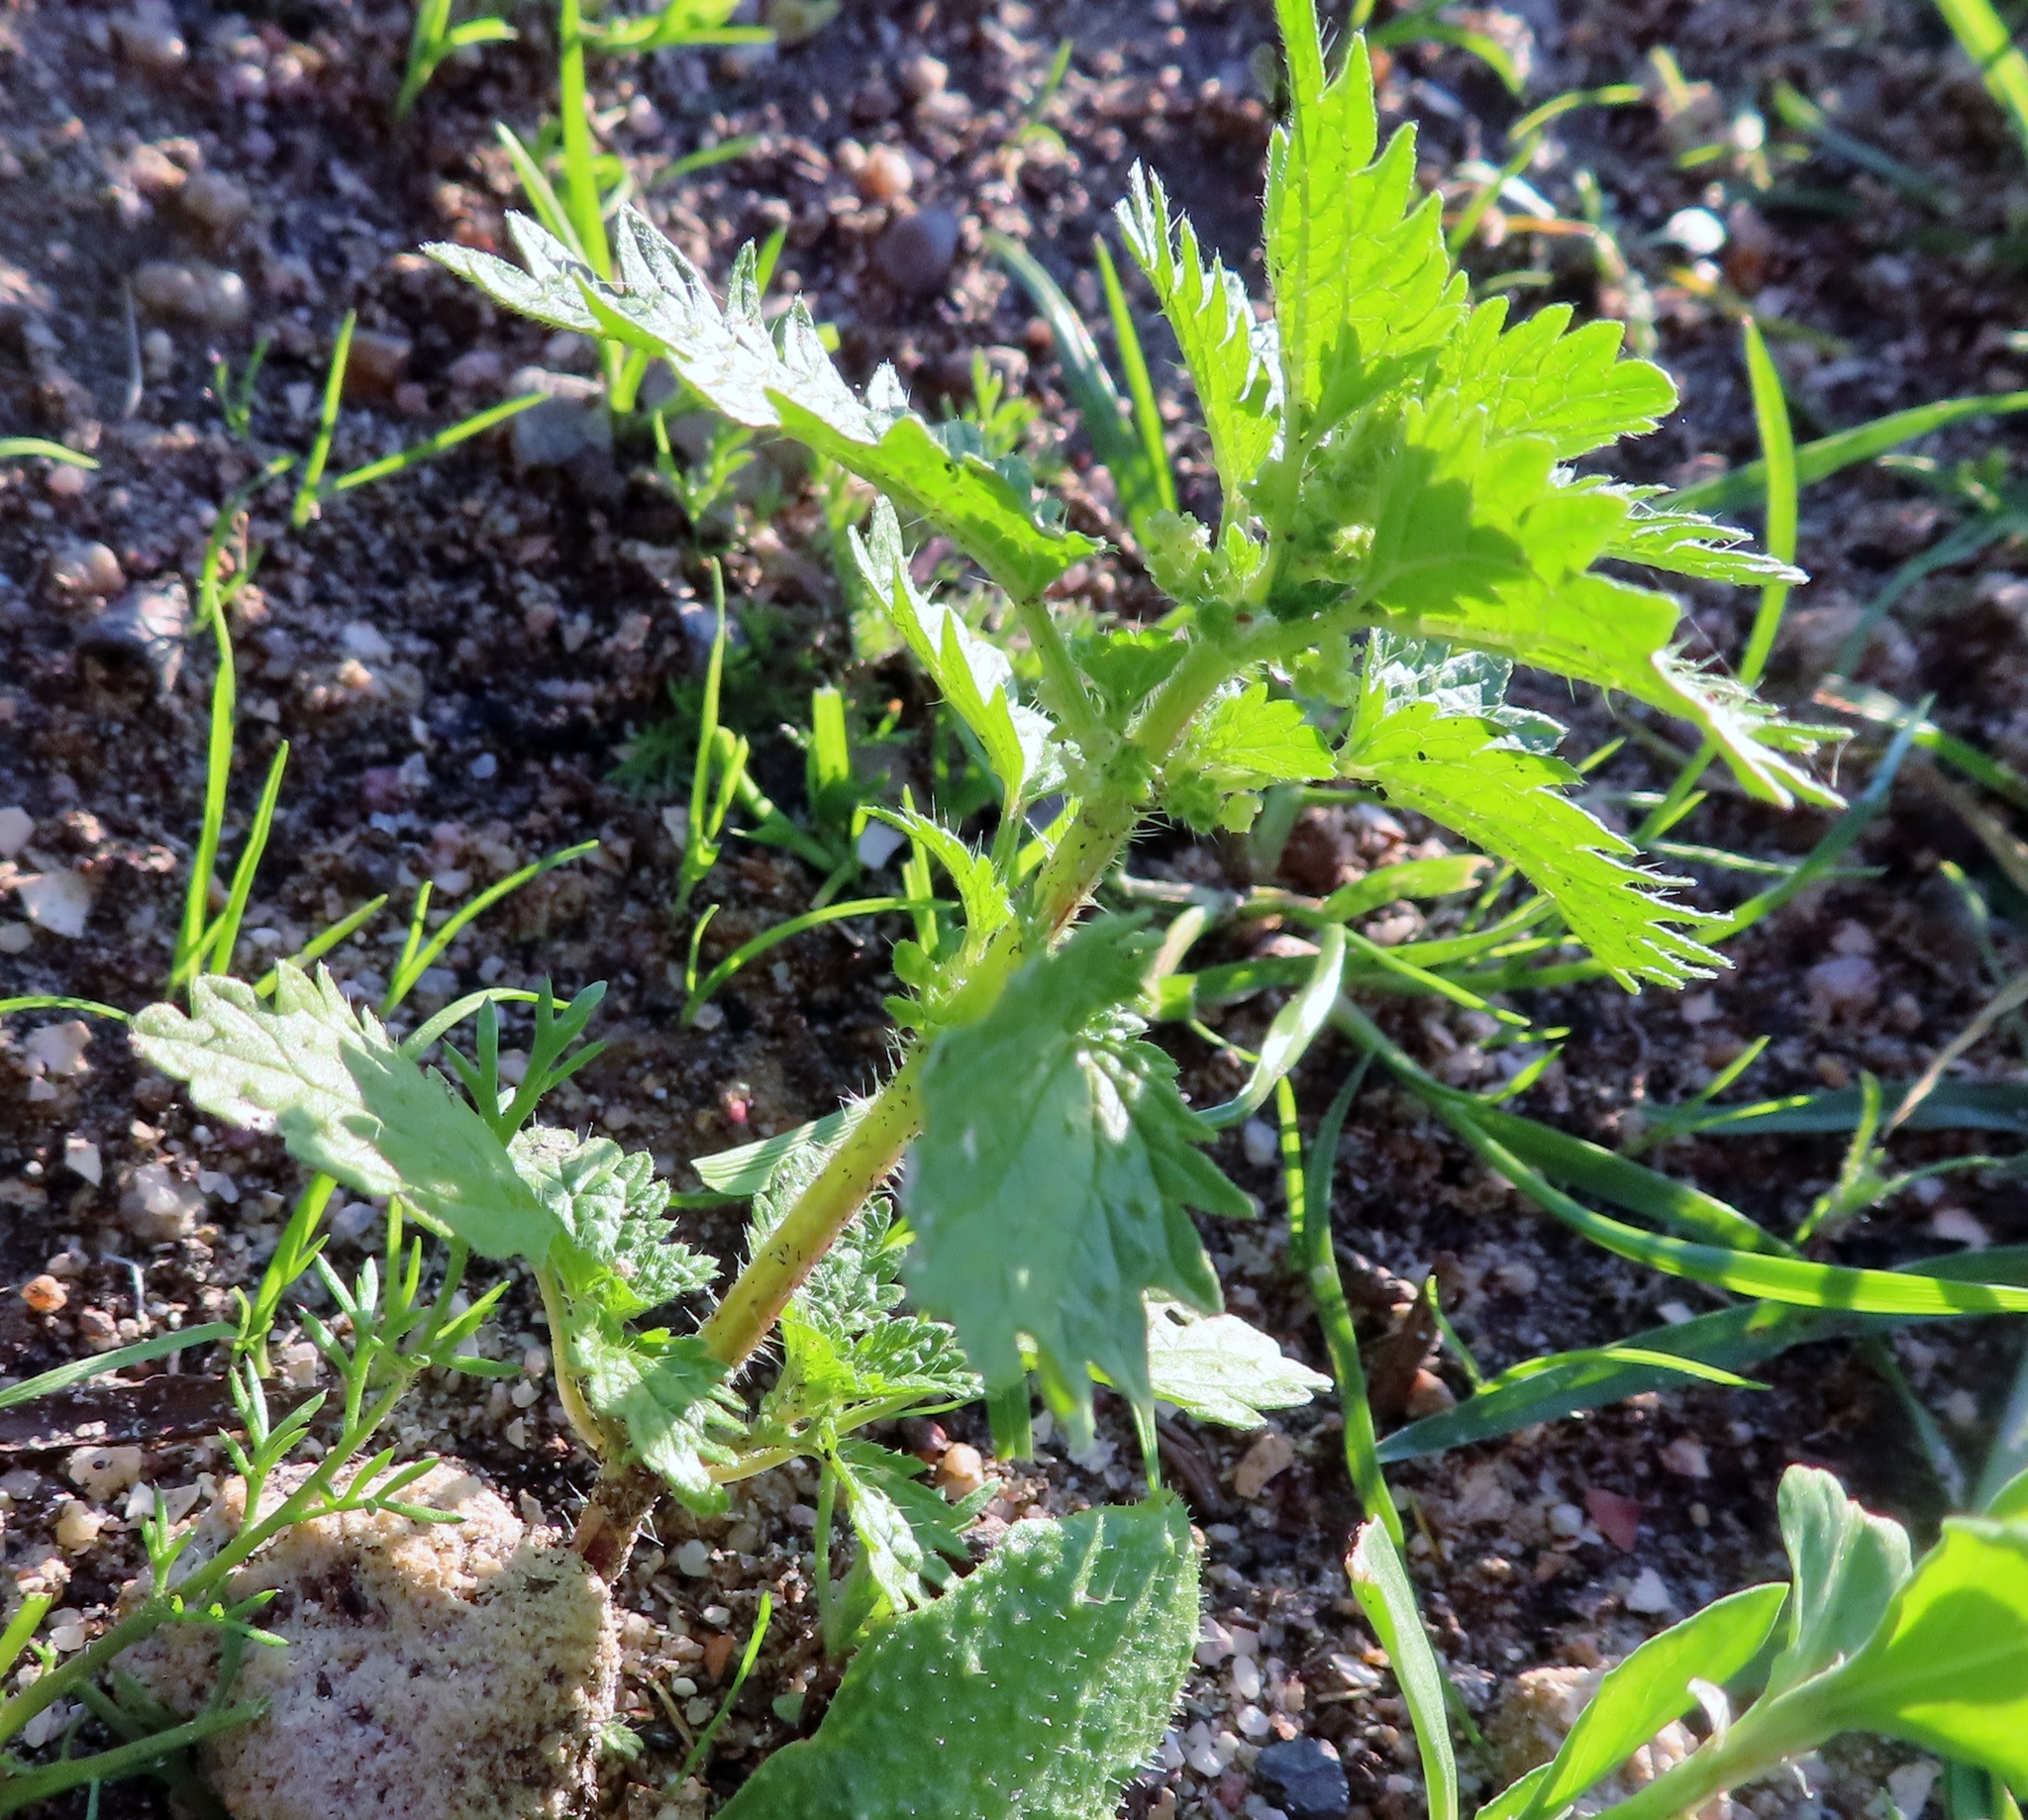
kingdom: Plantae
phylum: Tracheophyta
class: Magnoliopsida
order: Rosales
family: Urticaceae
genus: Urtica
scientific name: Urtica urens
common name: Dwarf nettle
